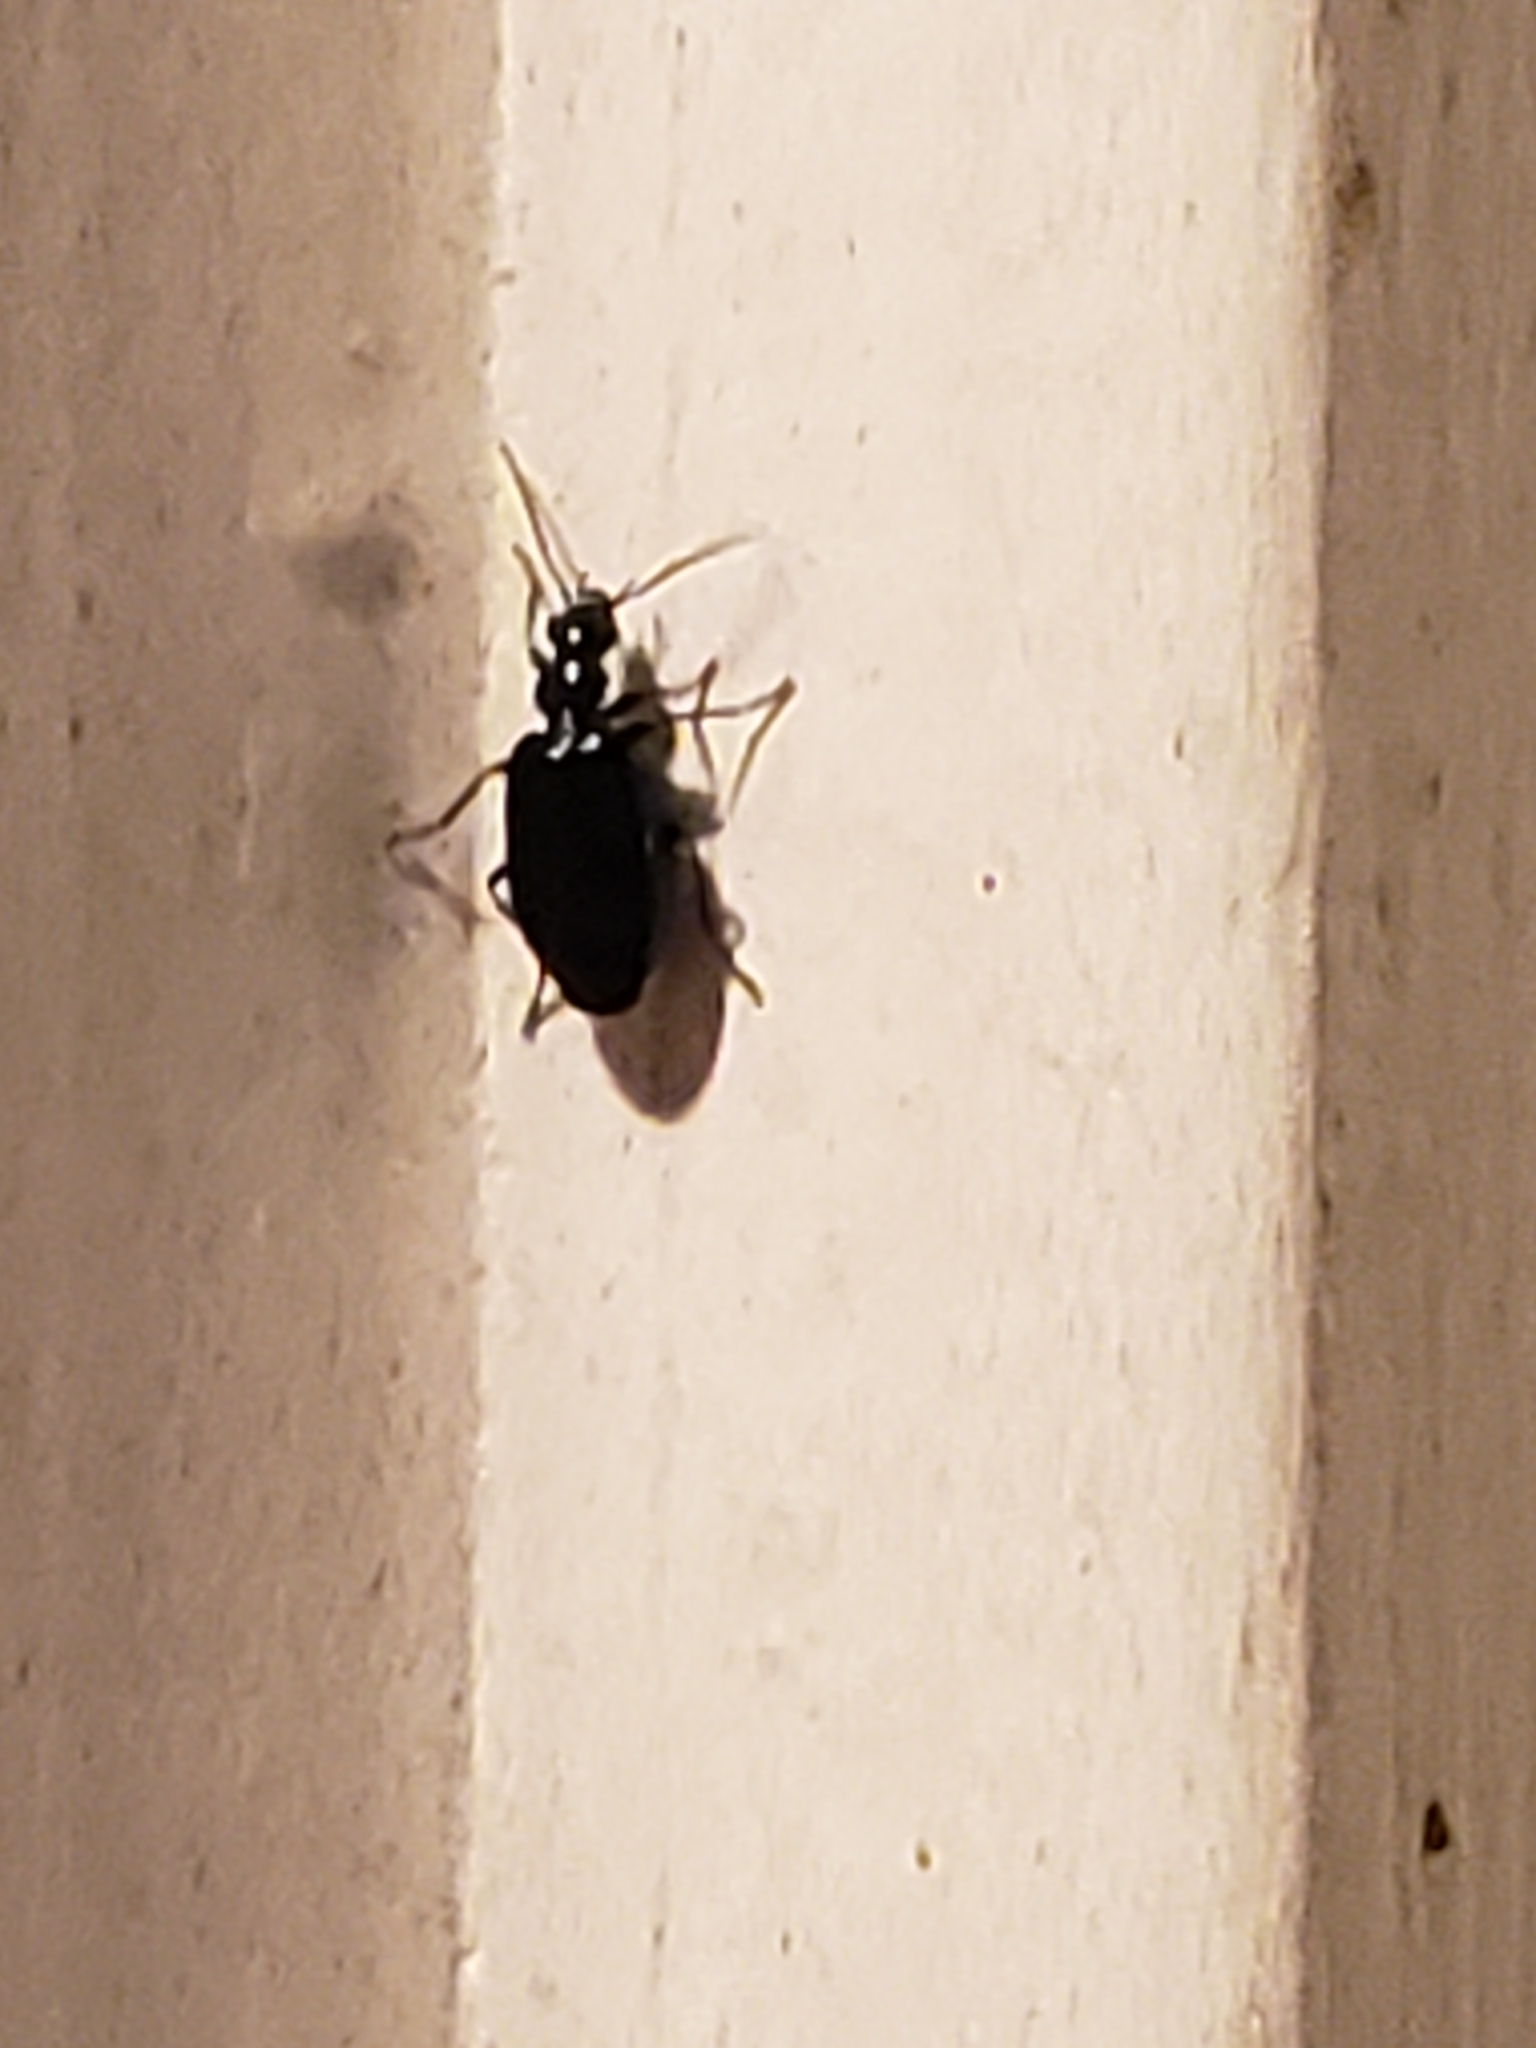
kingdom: Animalia
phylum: Arthropoda
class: Insecta
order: Coleoptera
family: Carabidae
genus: Lebia
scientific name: Lebia viridis
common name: Flower lebia beetle
